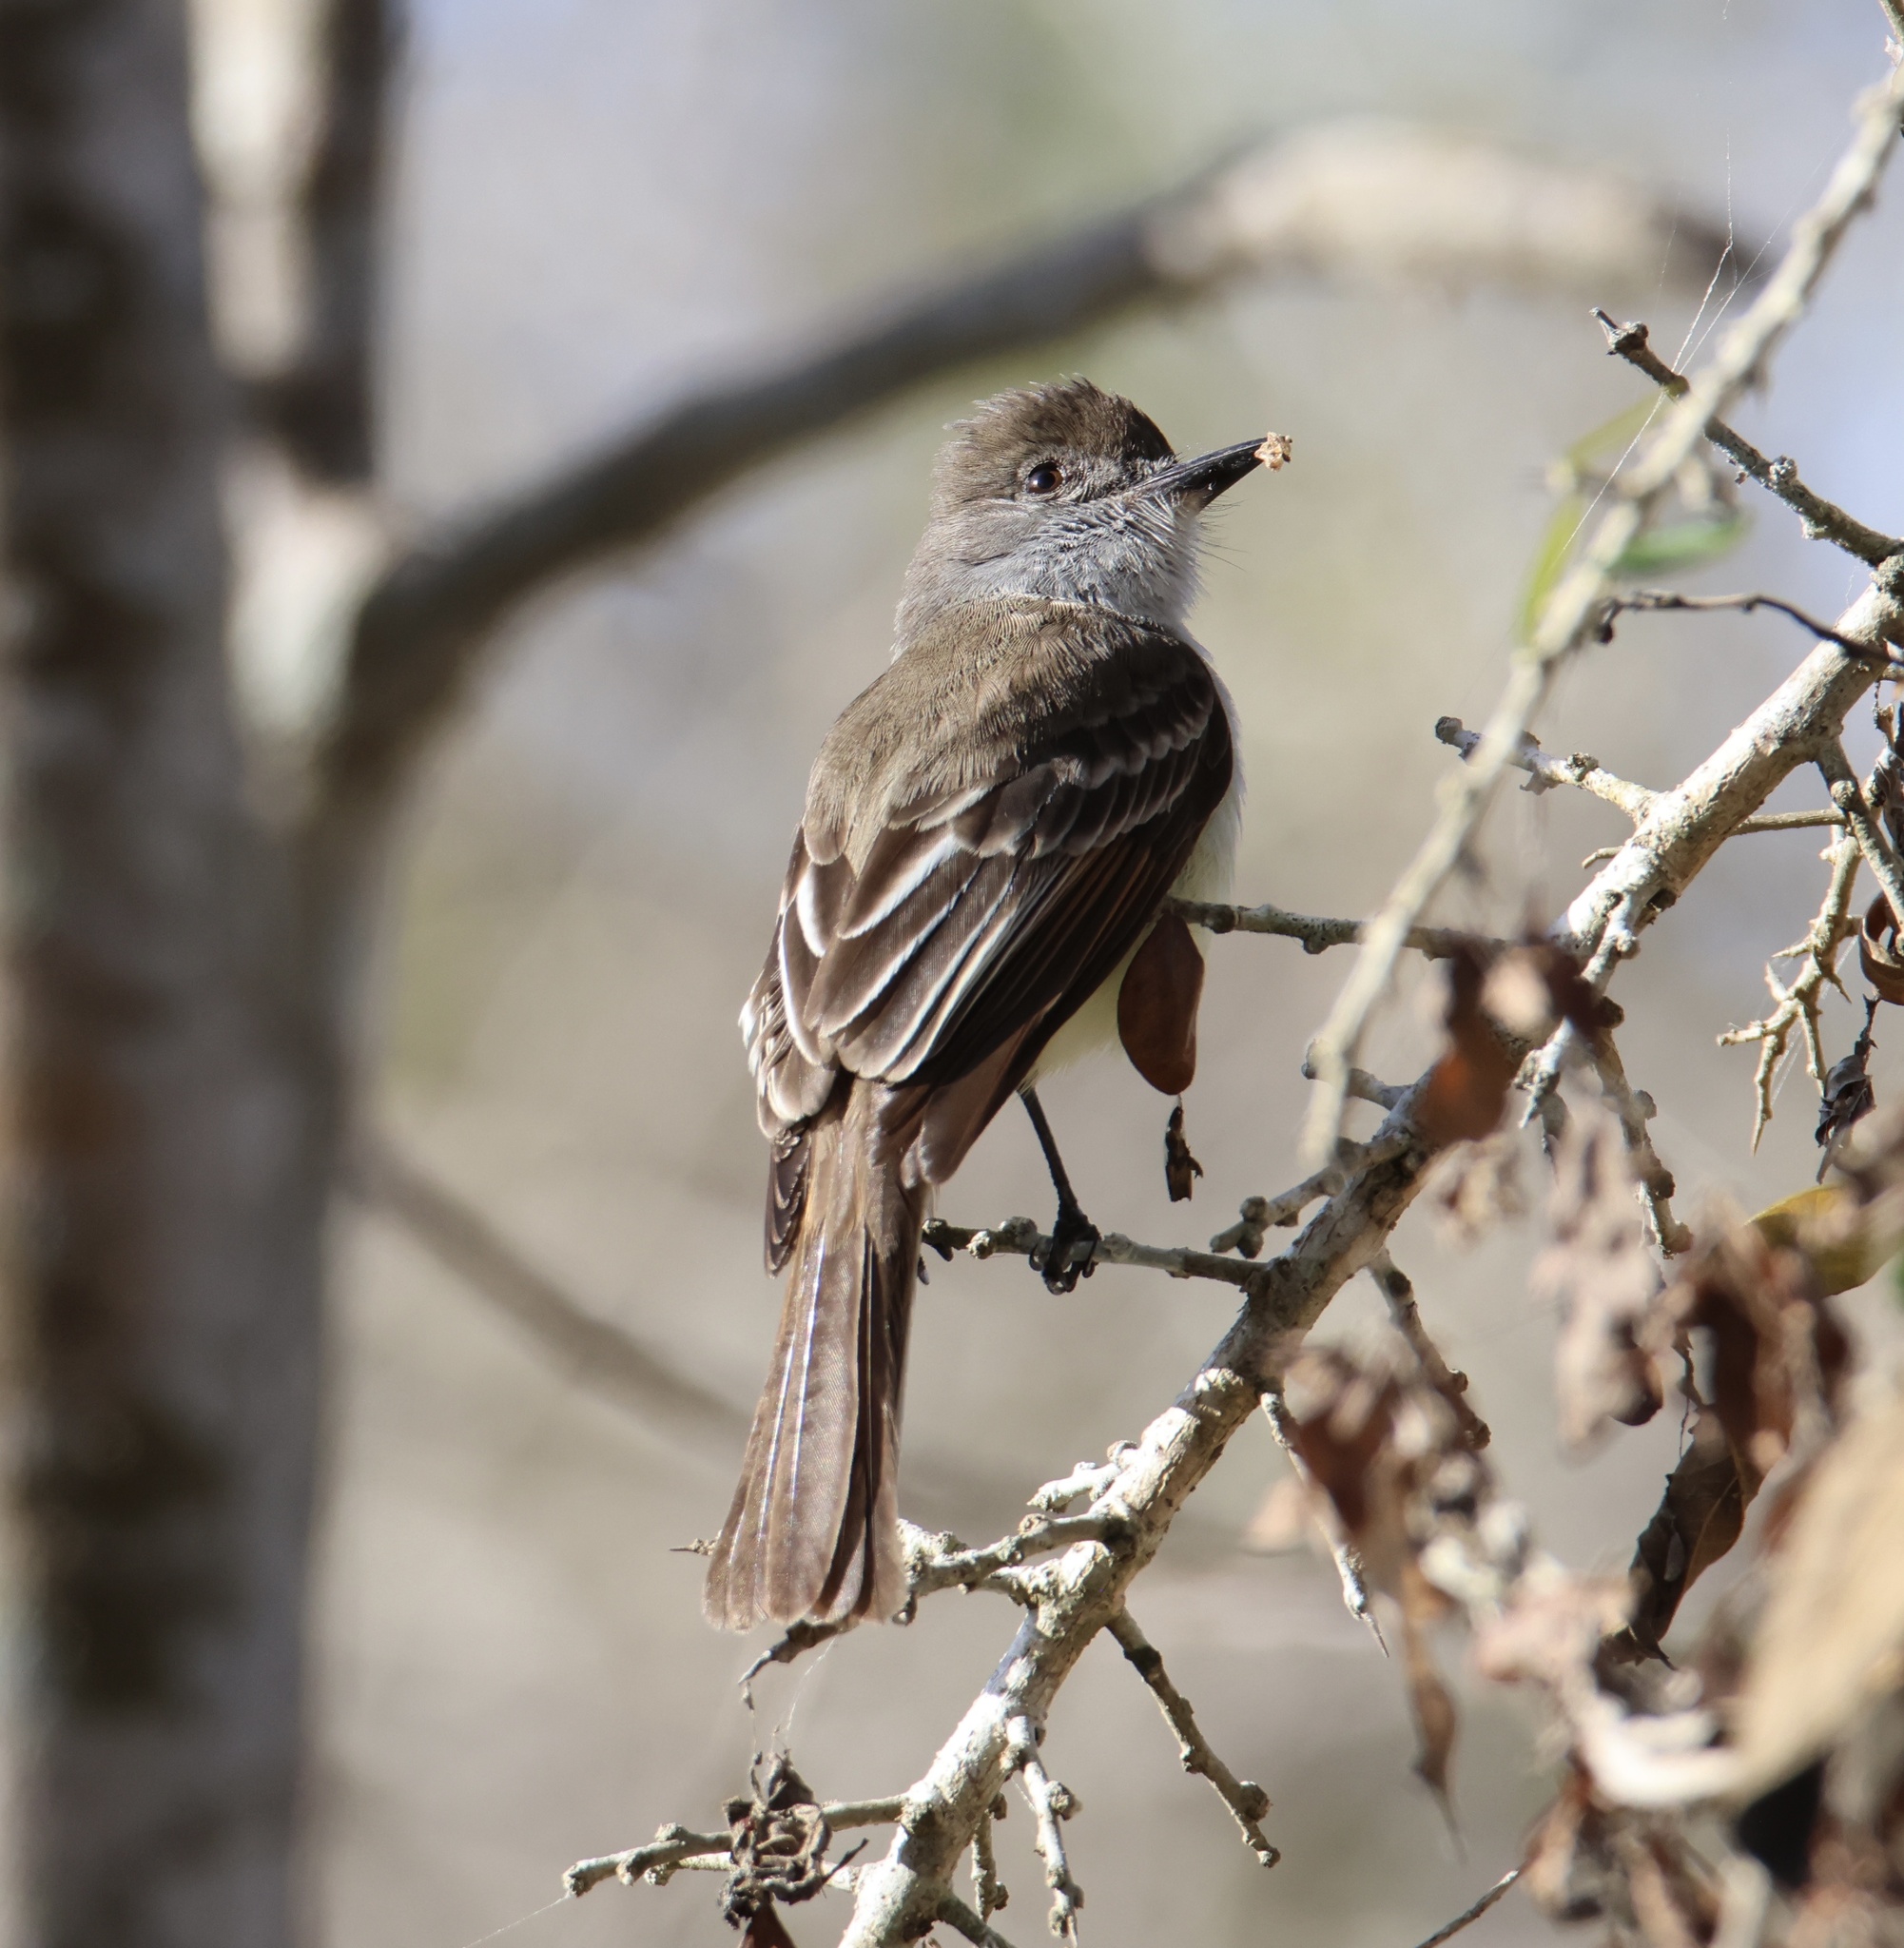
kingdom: Animalia
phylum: Chordata
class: Aves
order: Passeriformes
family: Tyrannidae
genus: Myiarchus
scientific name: Myiarchus stolidus
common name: Stolid flycatcher
